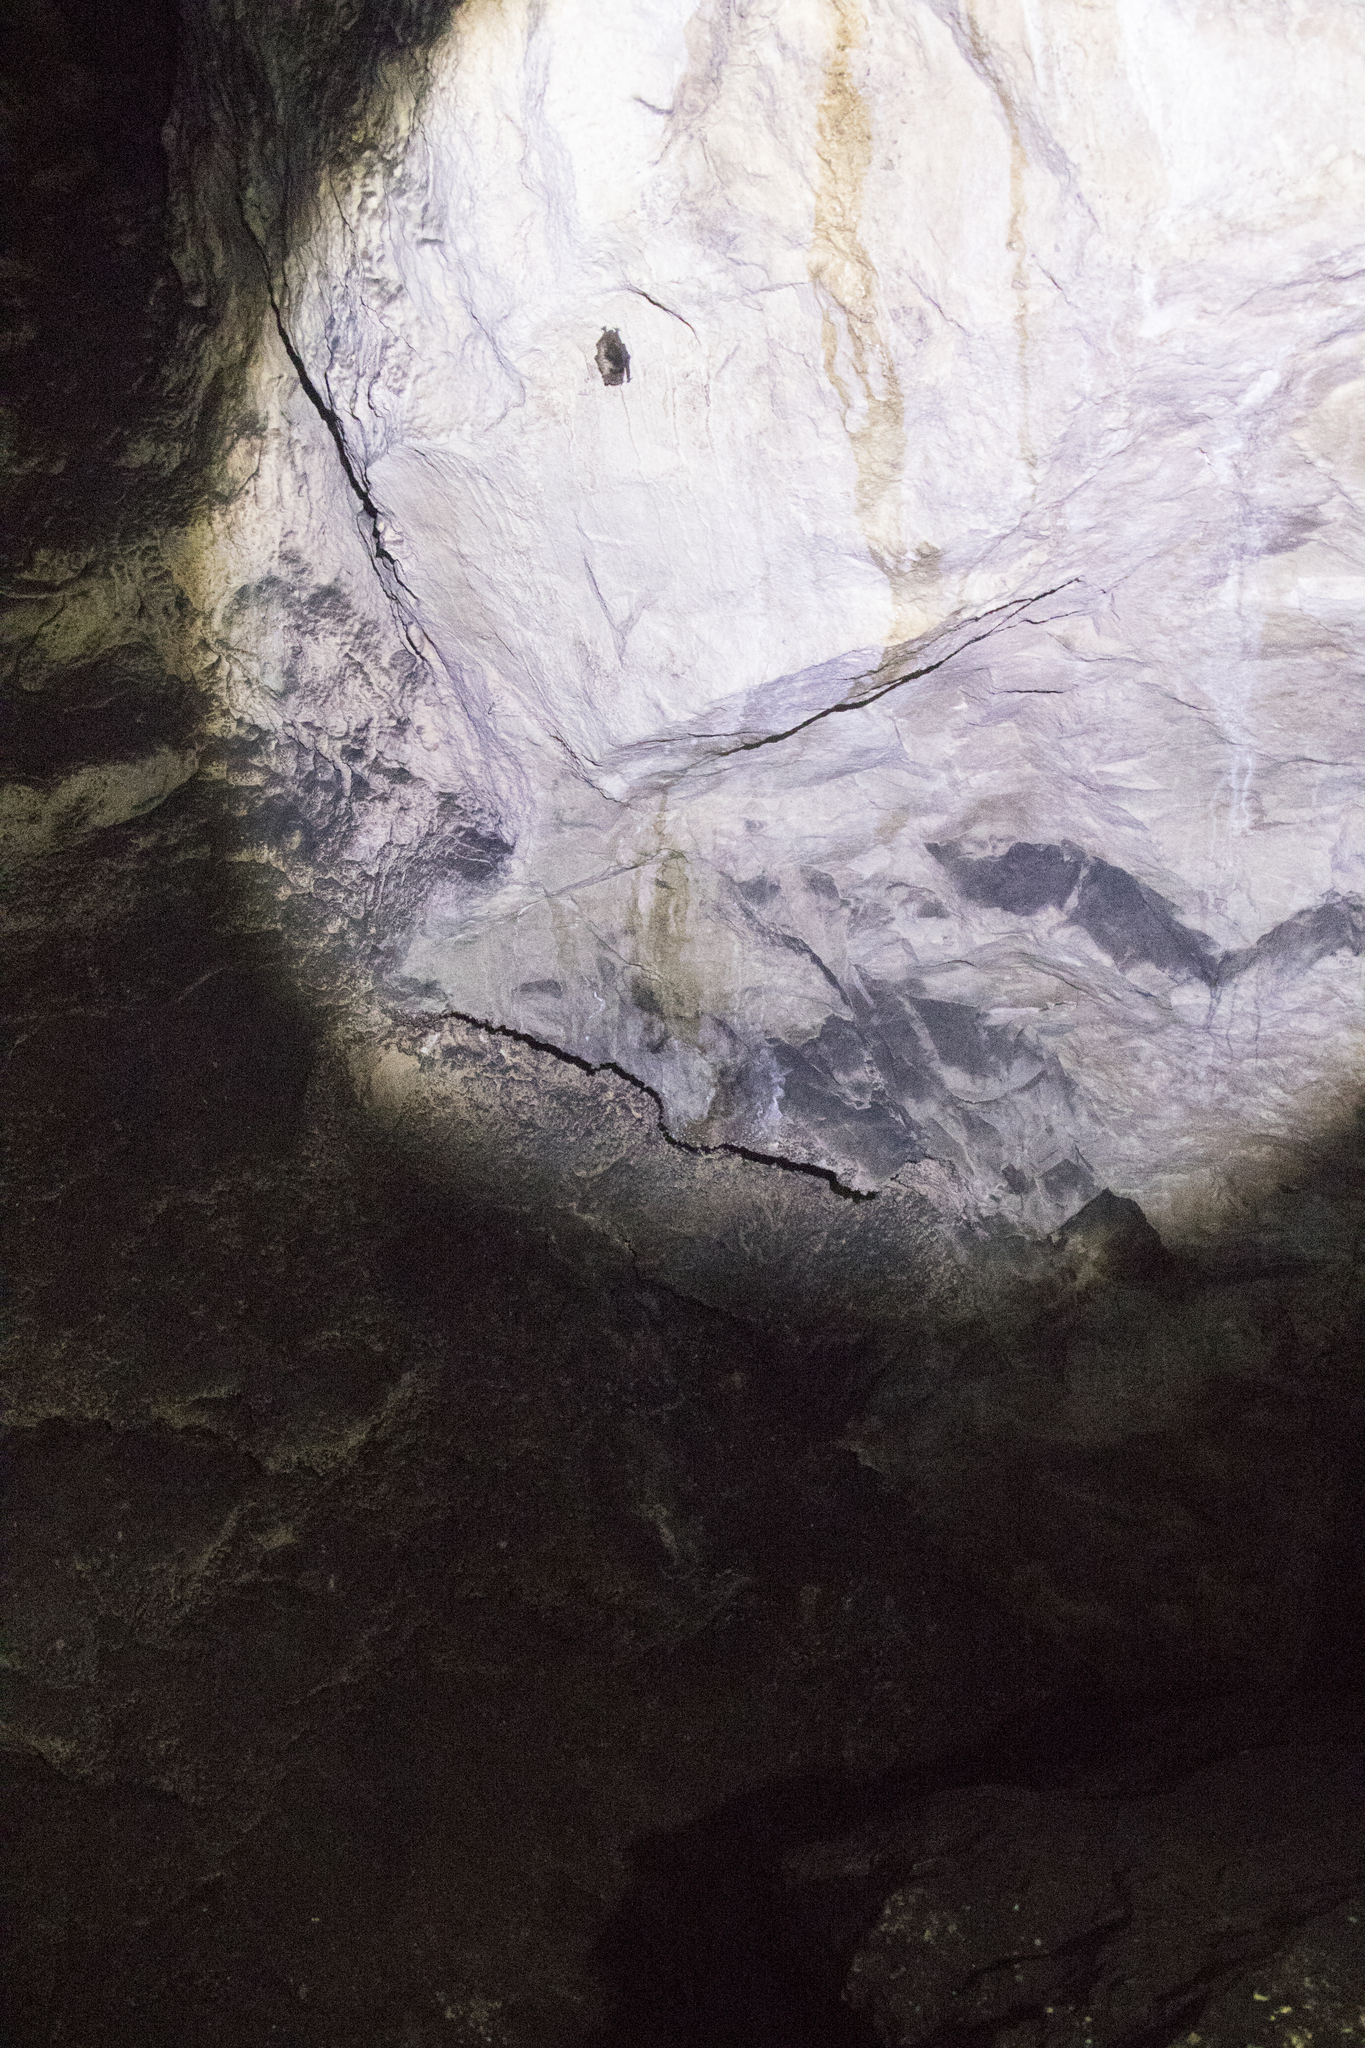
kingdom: Animalia
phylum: Chordata
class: Mammalia
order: Chiroptera
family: Vespertilionidae
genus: Eptesicus
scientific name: Eptesicus nilssonii
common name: Northern bat
